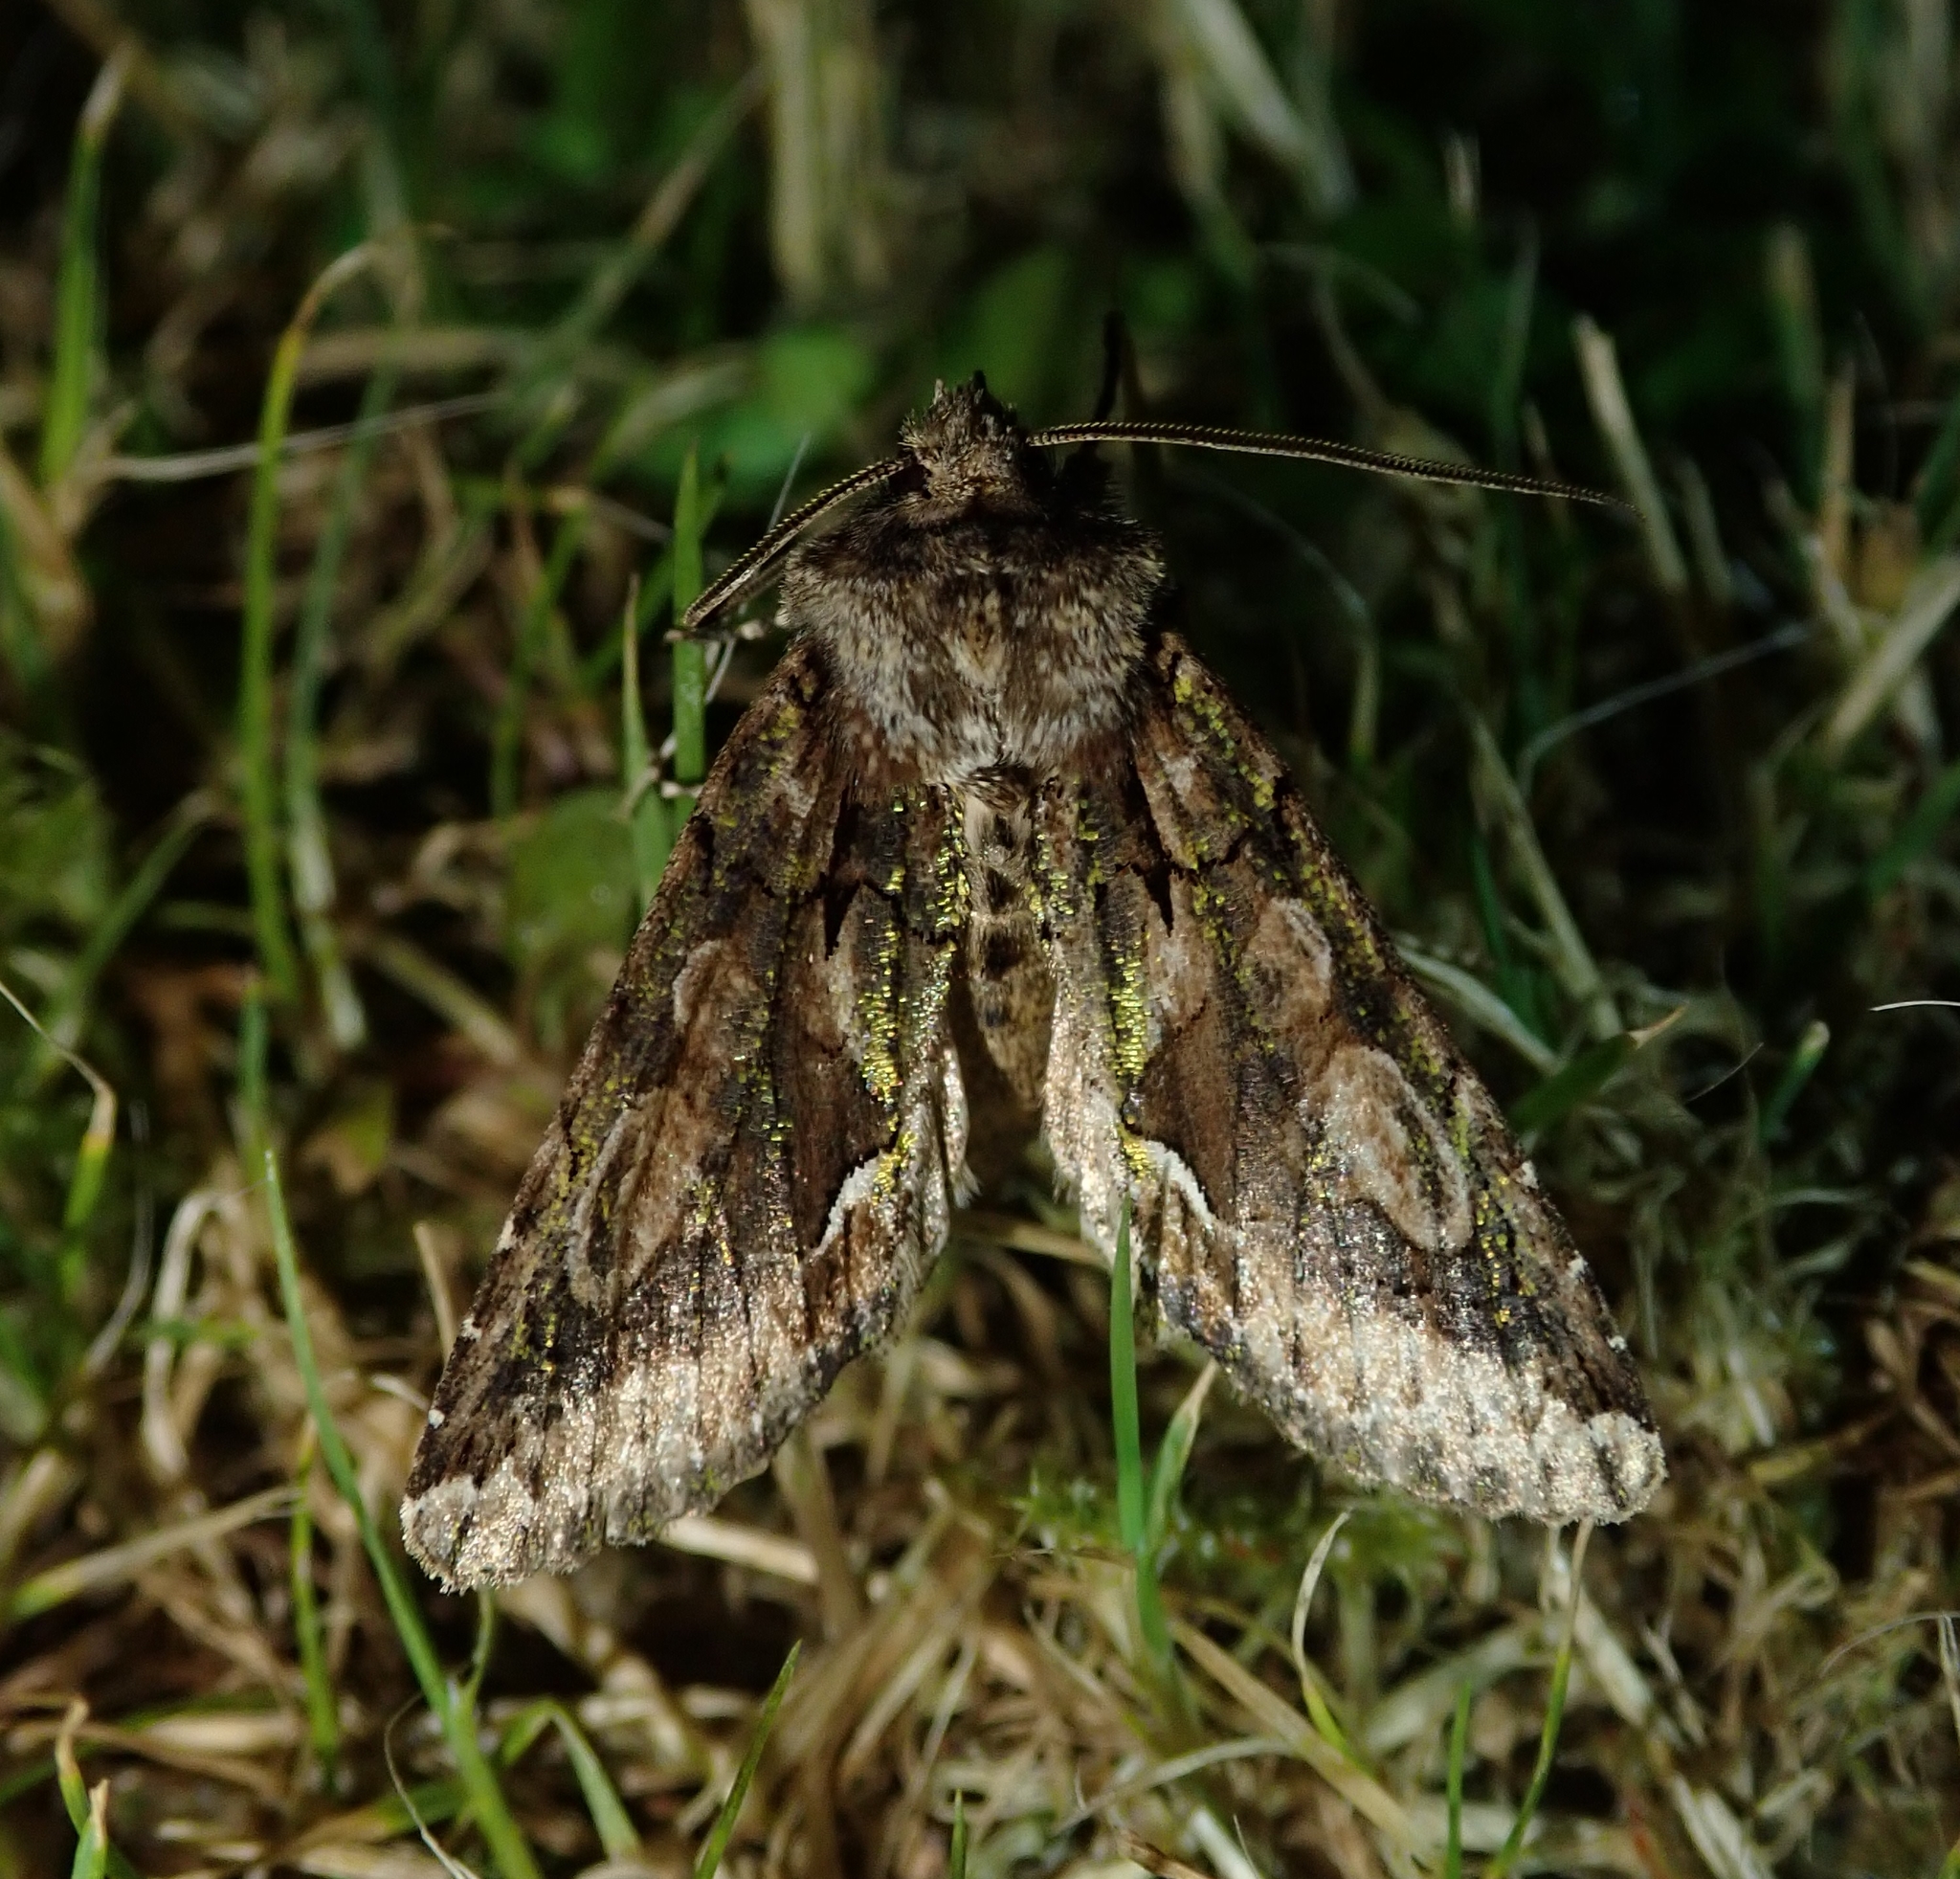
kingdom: Animalia
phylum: Arthropoda
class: Insecta
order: Lepidoptera
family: Noctuidae
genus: Allophyes
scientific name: Allophyes oxyacanthae
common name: Green-brindled crescent
